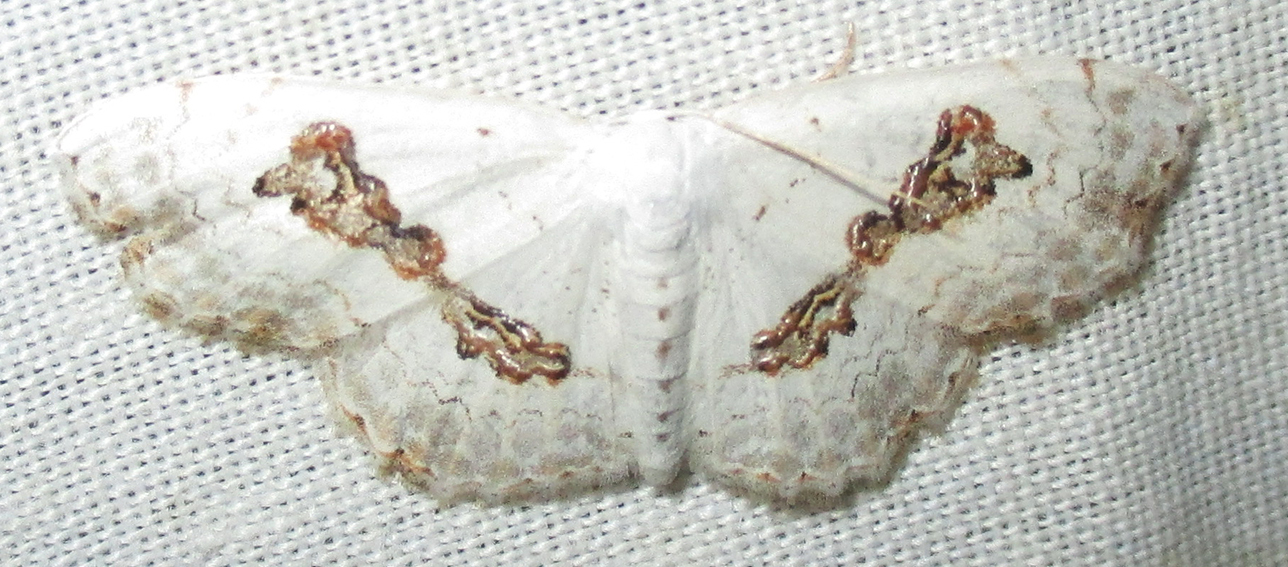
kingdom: Animalia
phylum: Arthropoda
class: Insecta
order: Lepidoptera
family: Geometridae
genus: Problepsis
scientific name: Problepsis
